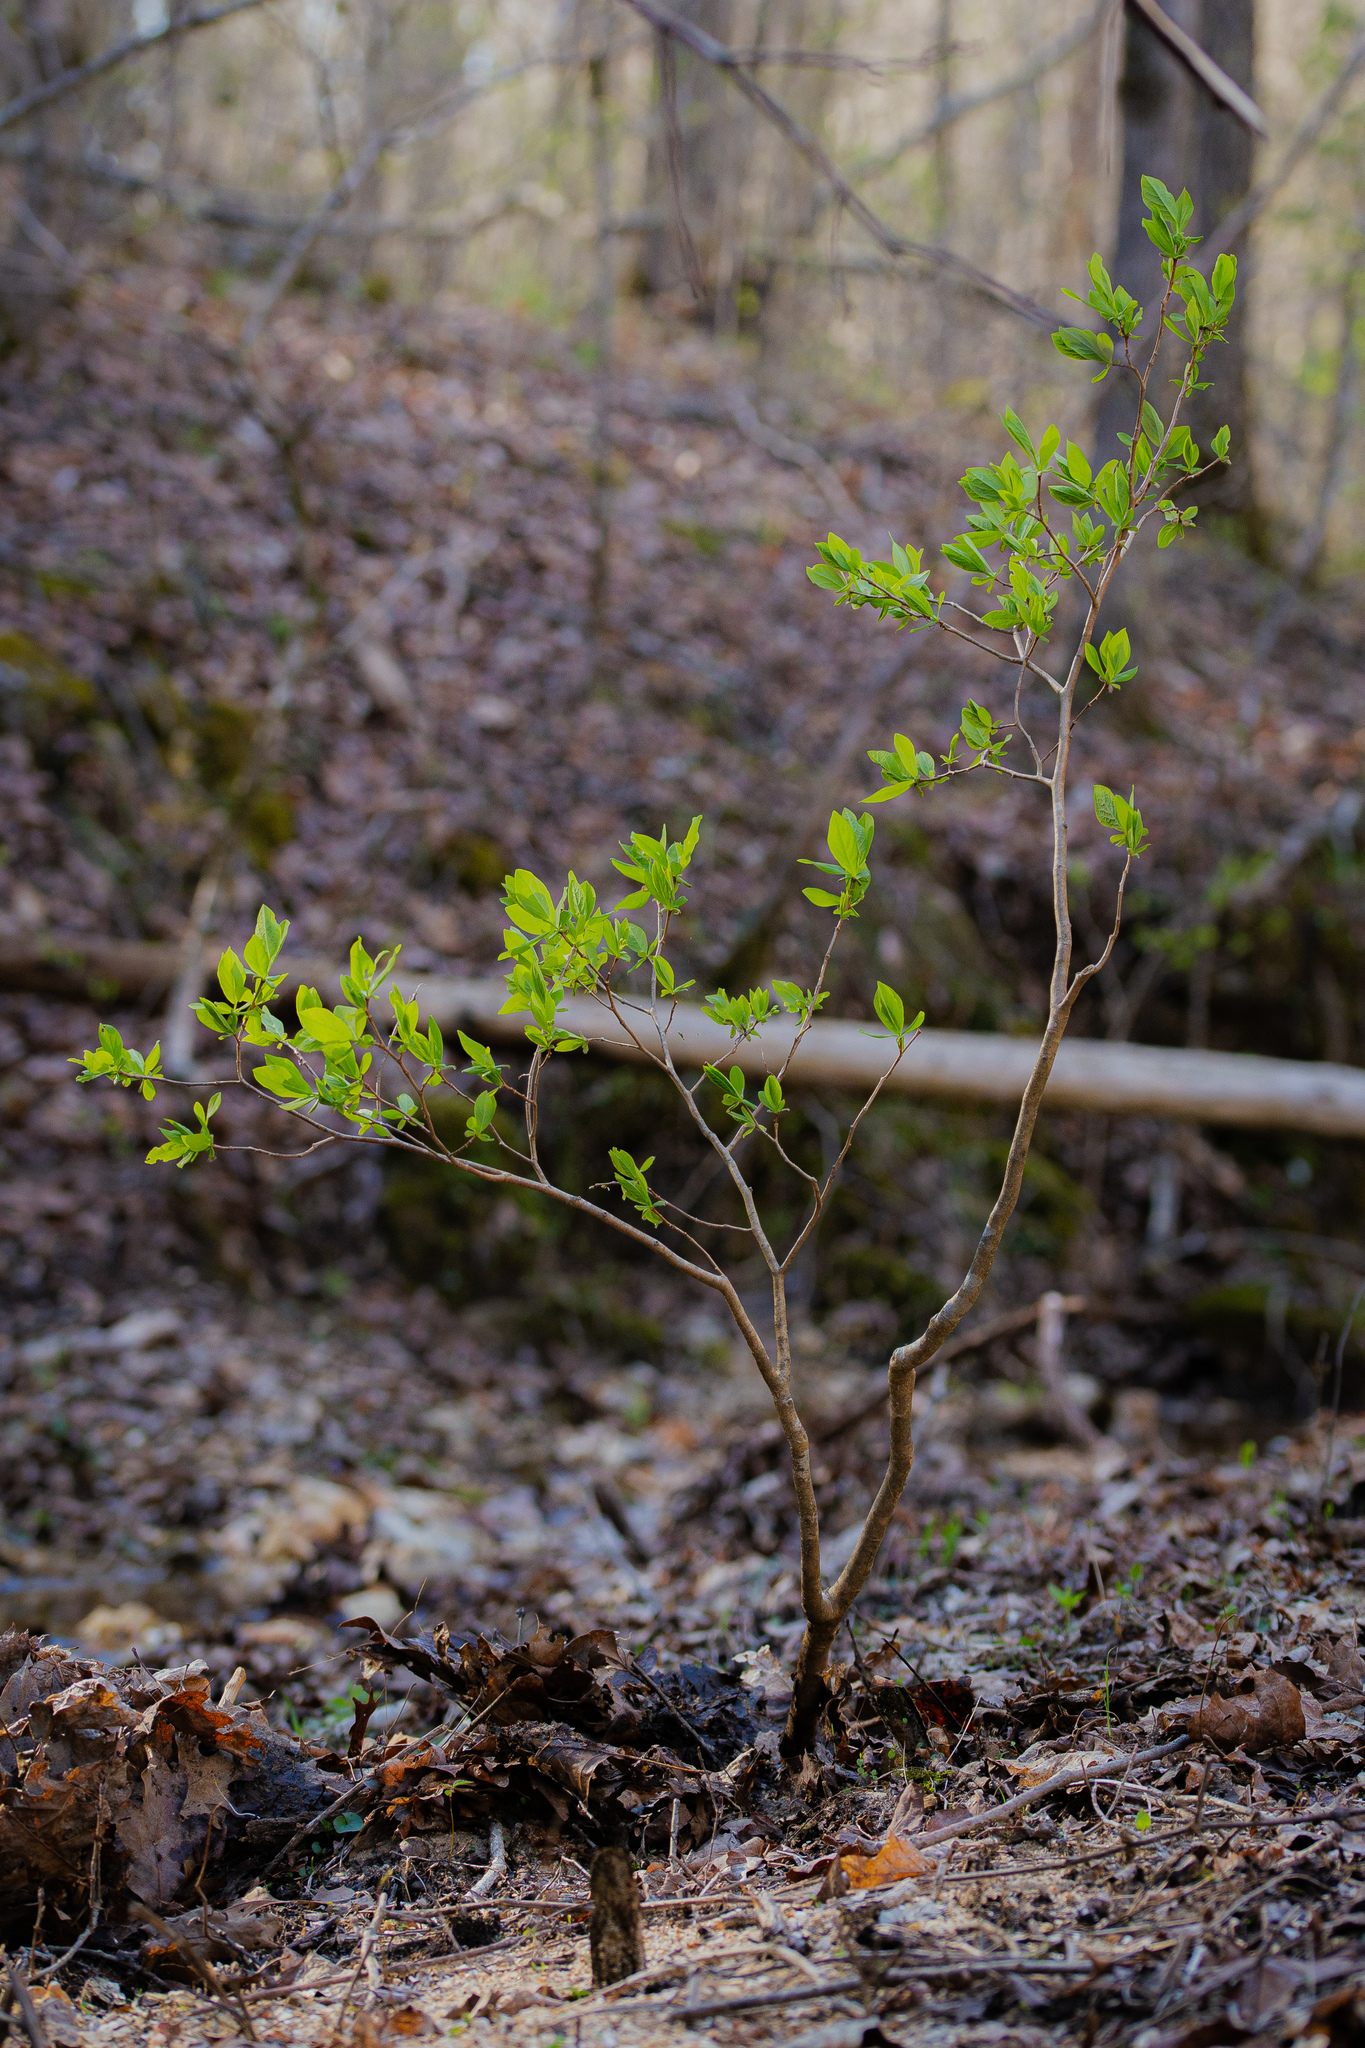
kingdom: Plantae
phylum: Tracheophyta
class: Magnoliopsida
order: Malvales
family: Thymelaeaceae
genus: Dirca
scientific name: Dirca palustris
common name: Leatherwood
